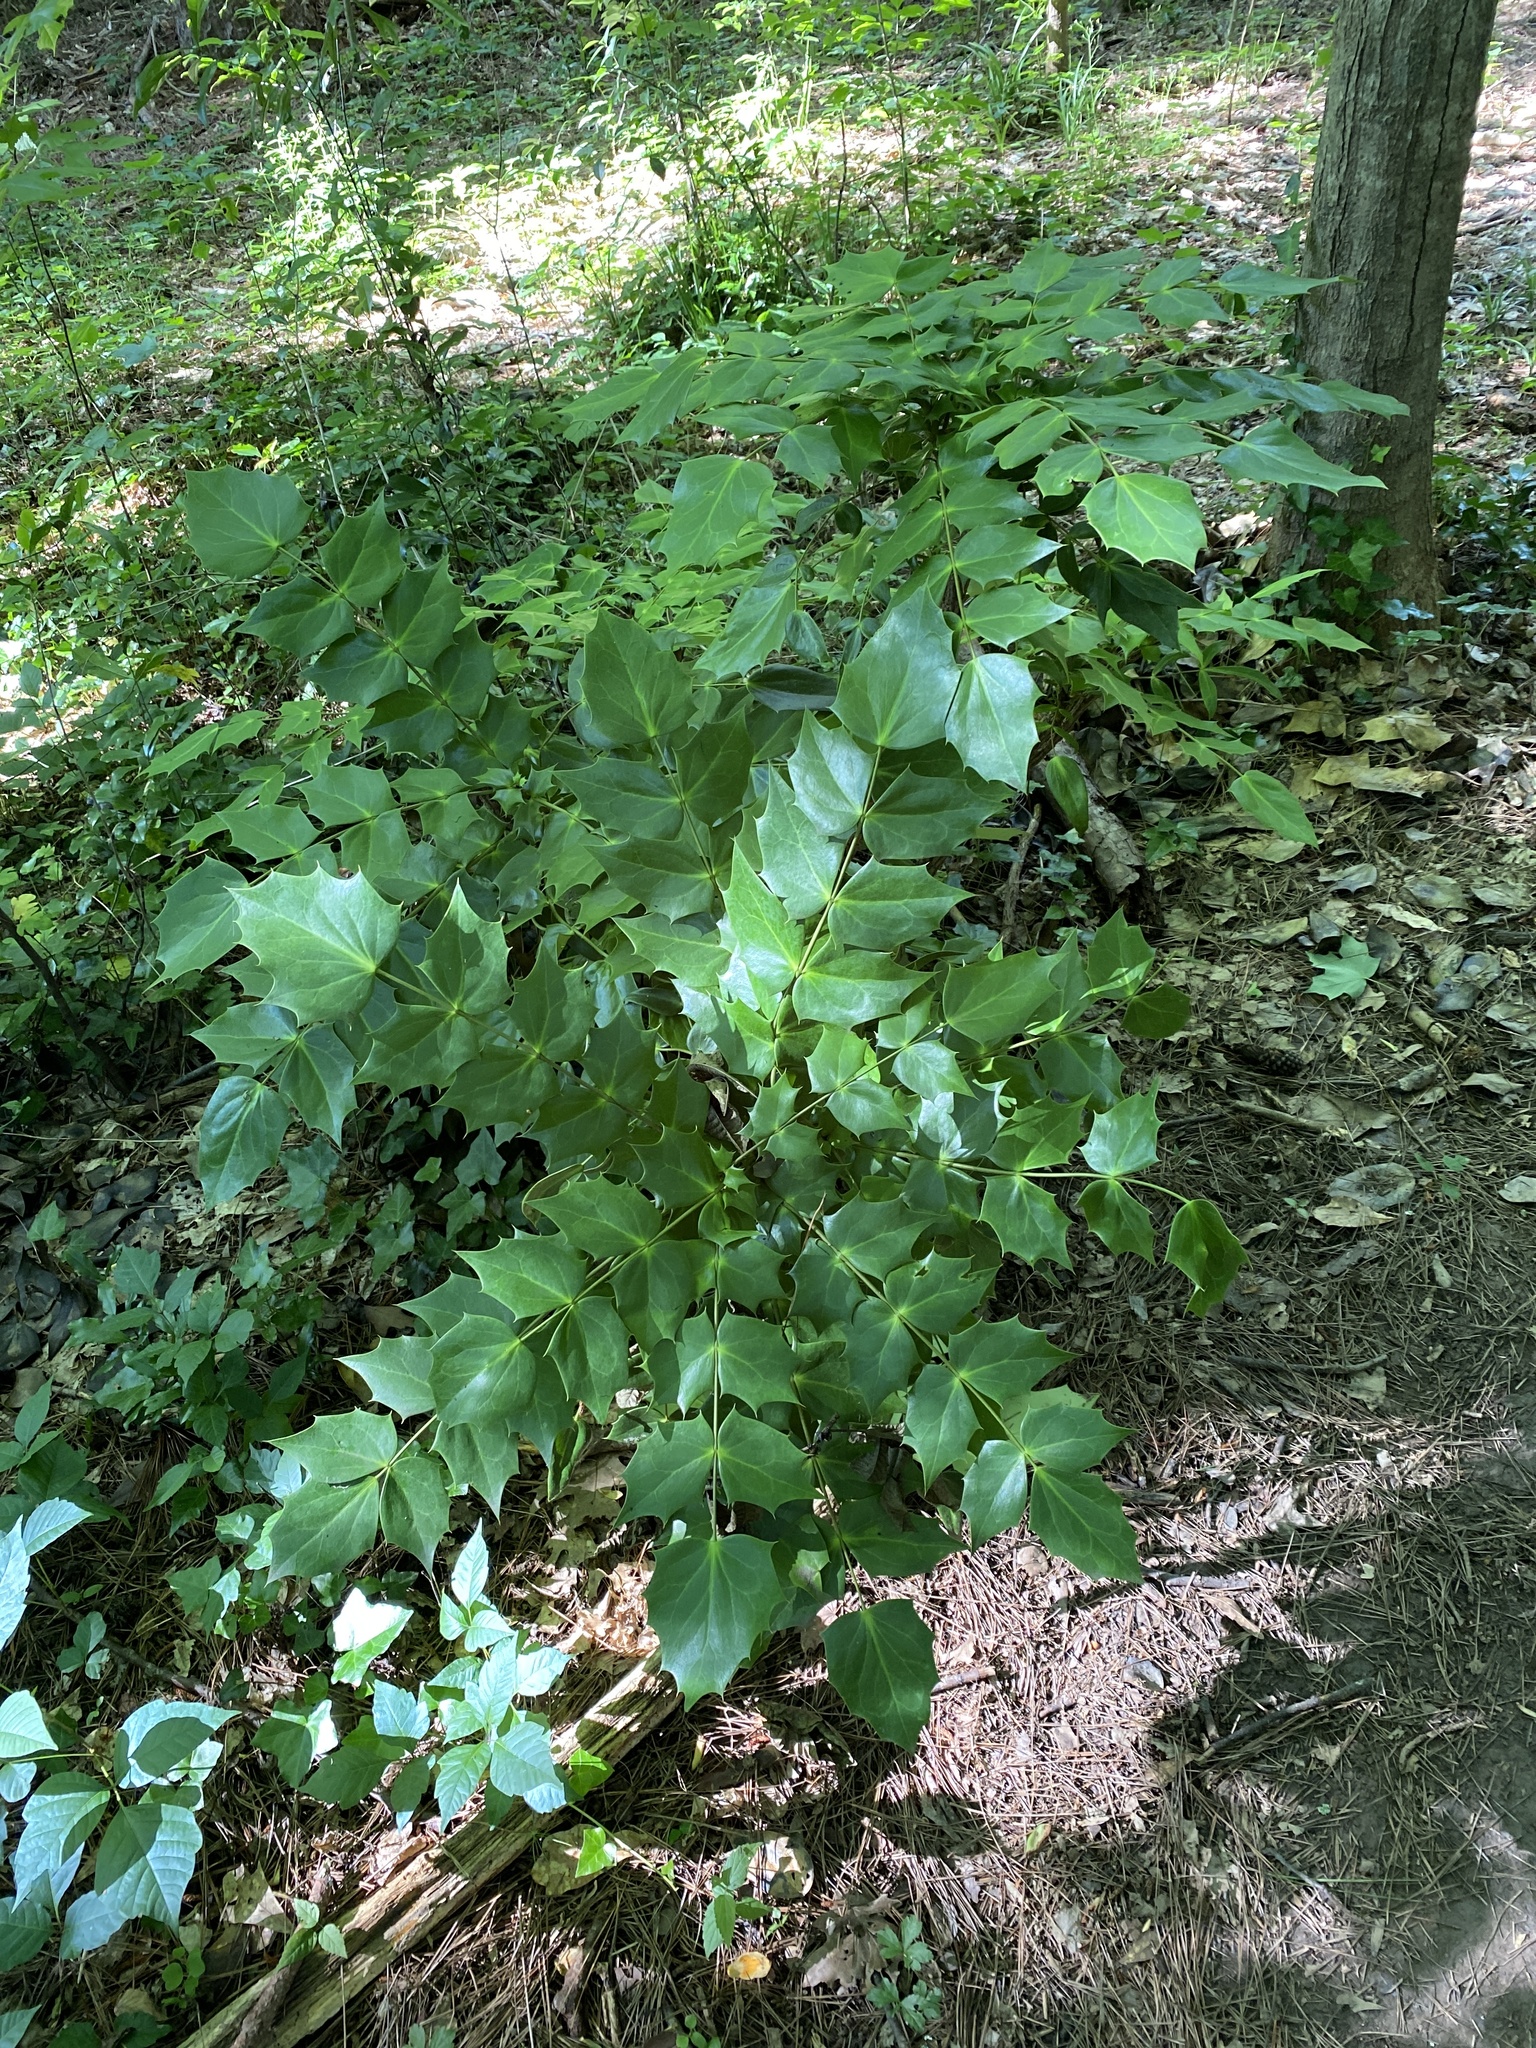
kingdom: Plantae
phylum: Tracheophyta
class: Magnoliopsida
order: Ranunculales
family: Berberidaceae
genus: Mahonia
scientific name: Mahonia bealei
